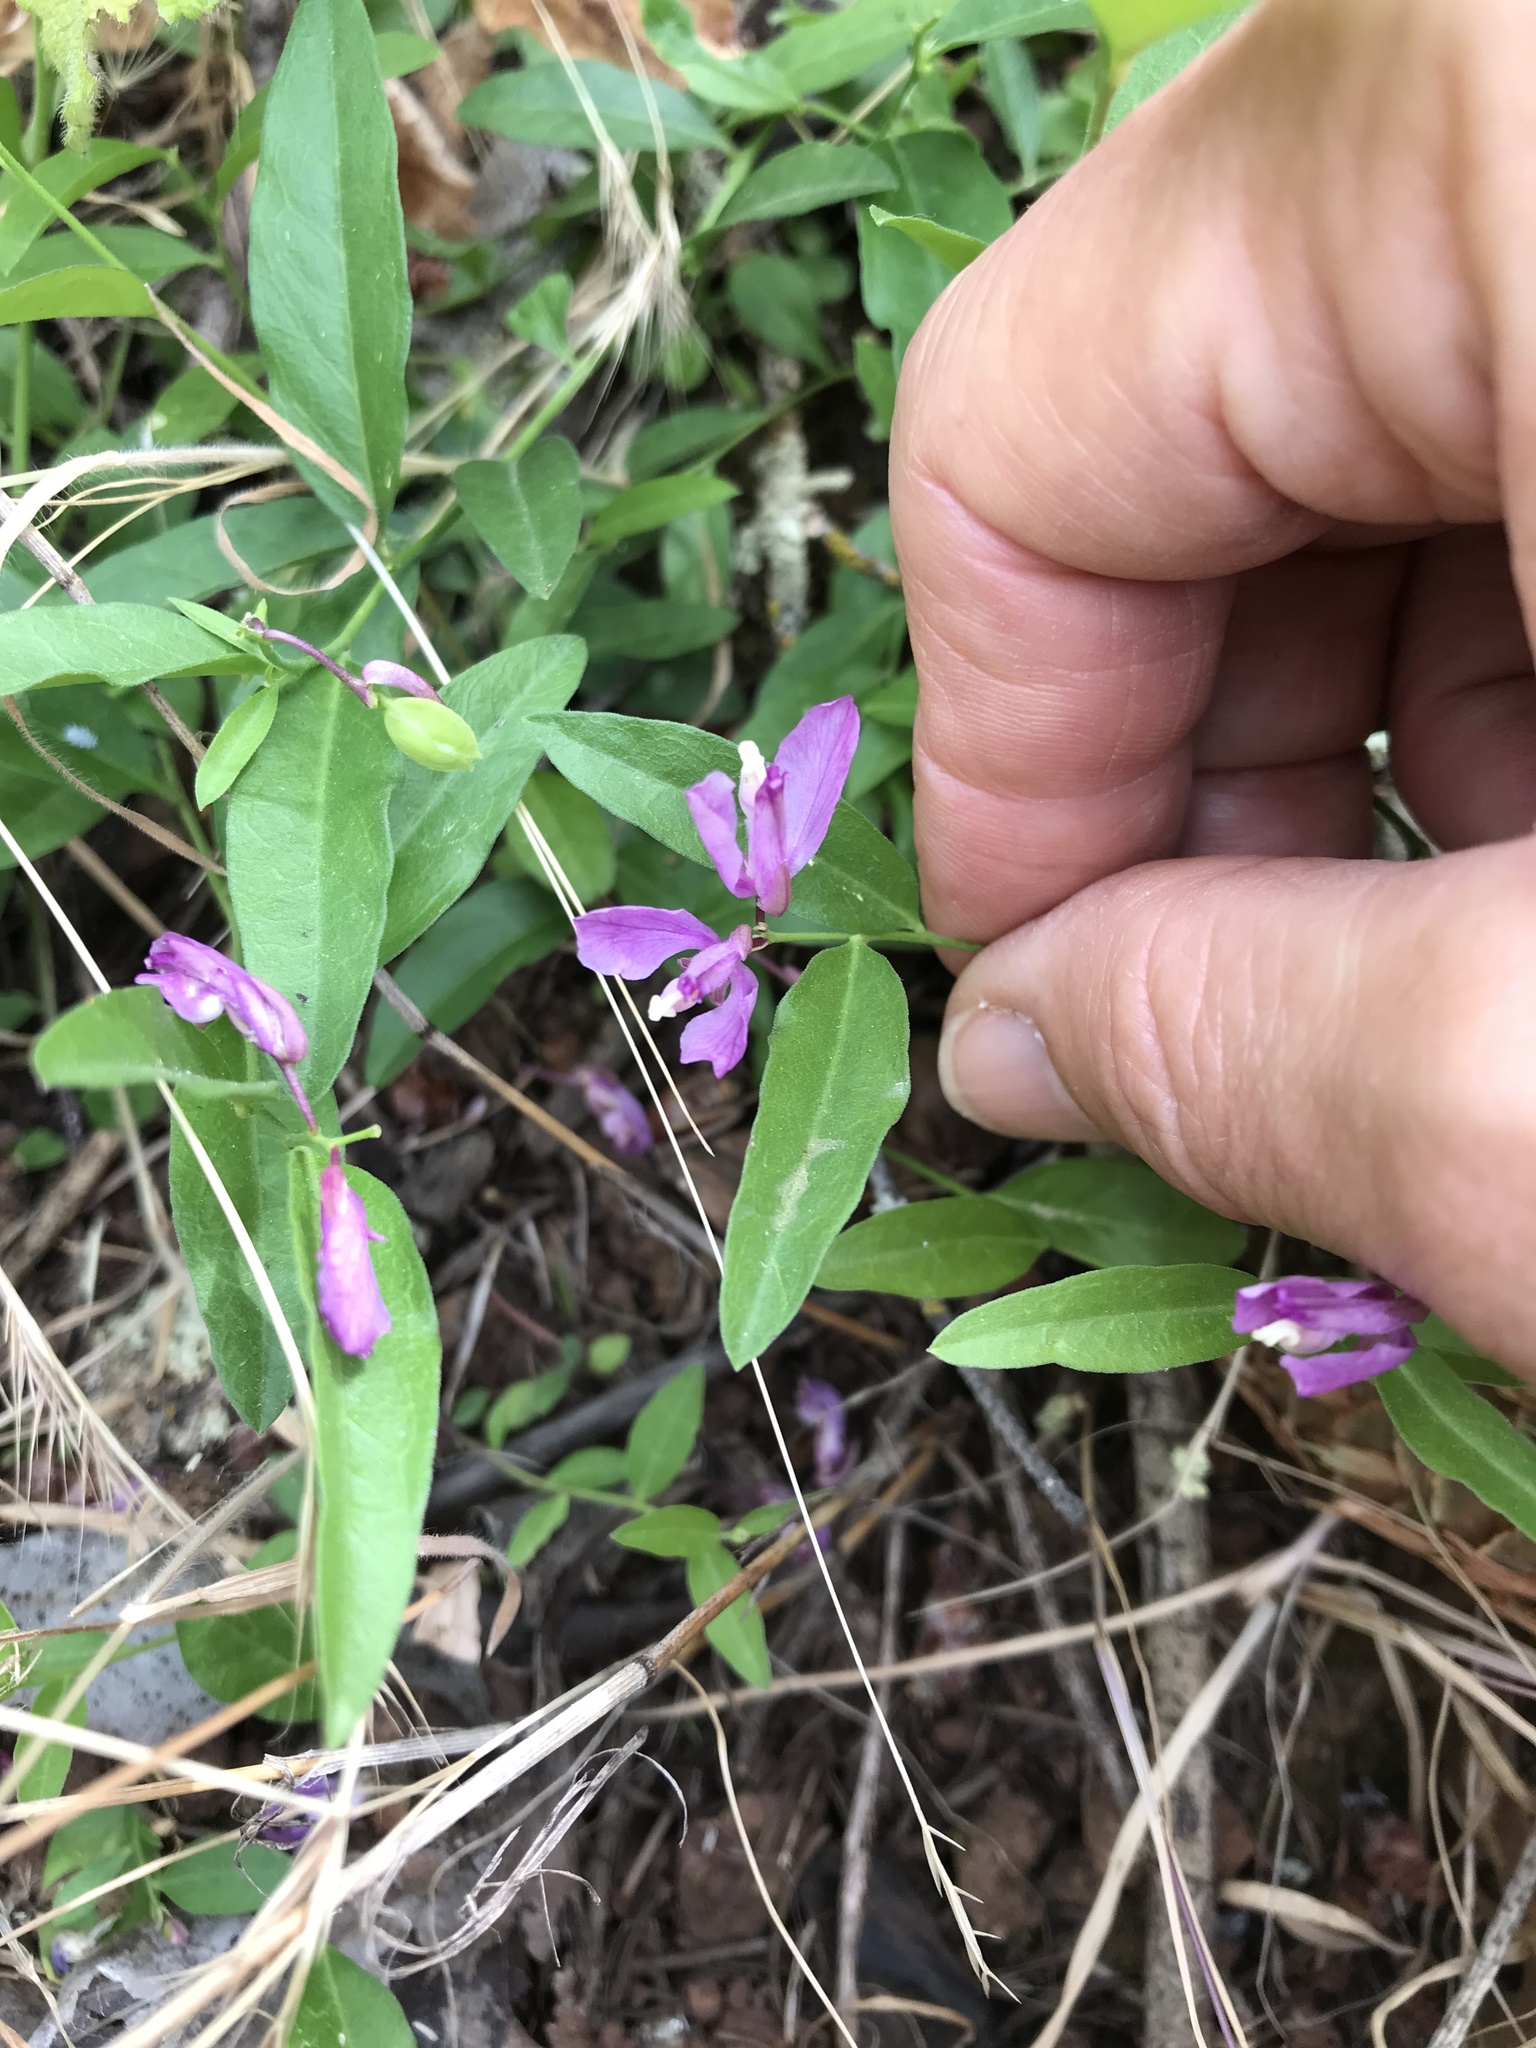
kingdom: Plantae
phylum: Tracheophyta
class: Magnoliopsida
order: Fabales
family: Polygalaceae
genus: Rhinotropis
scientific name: Rhinotropis californica
